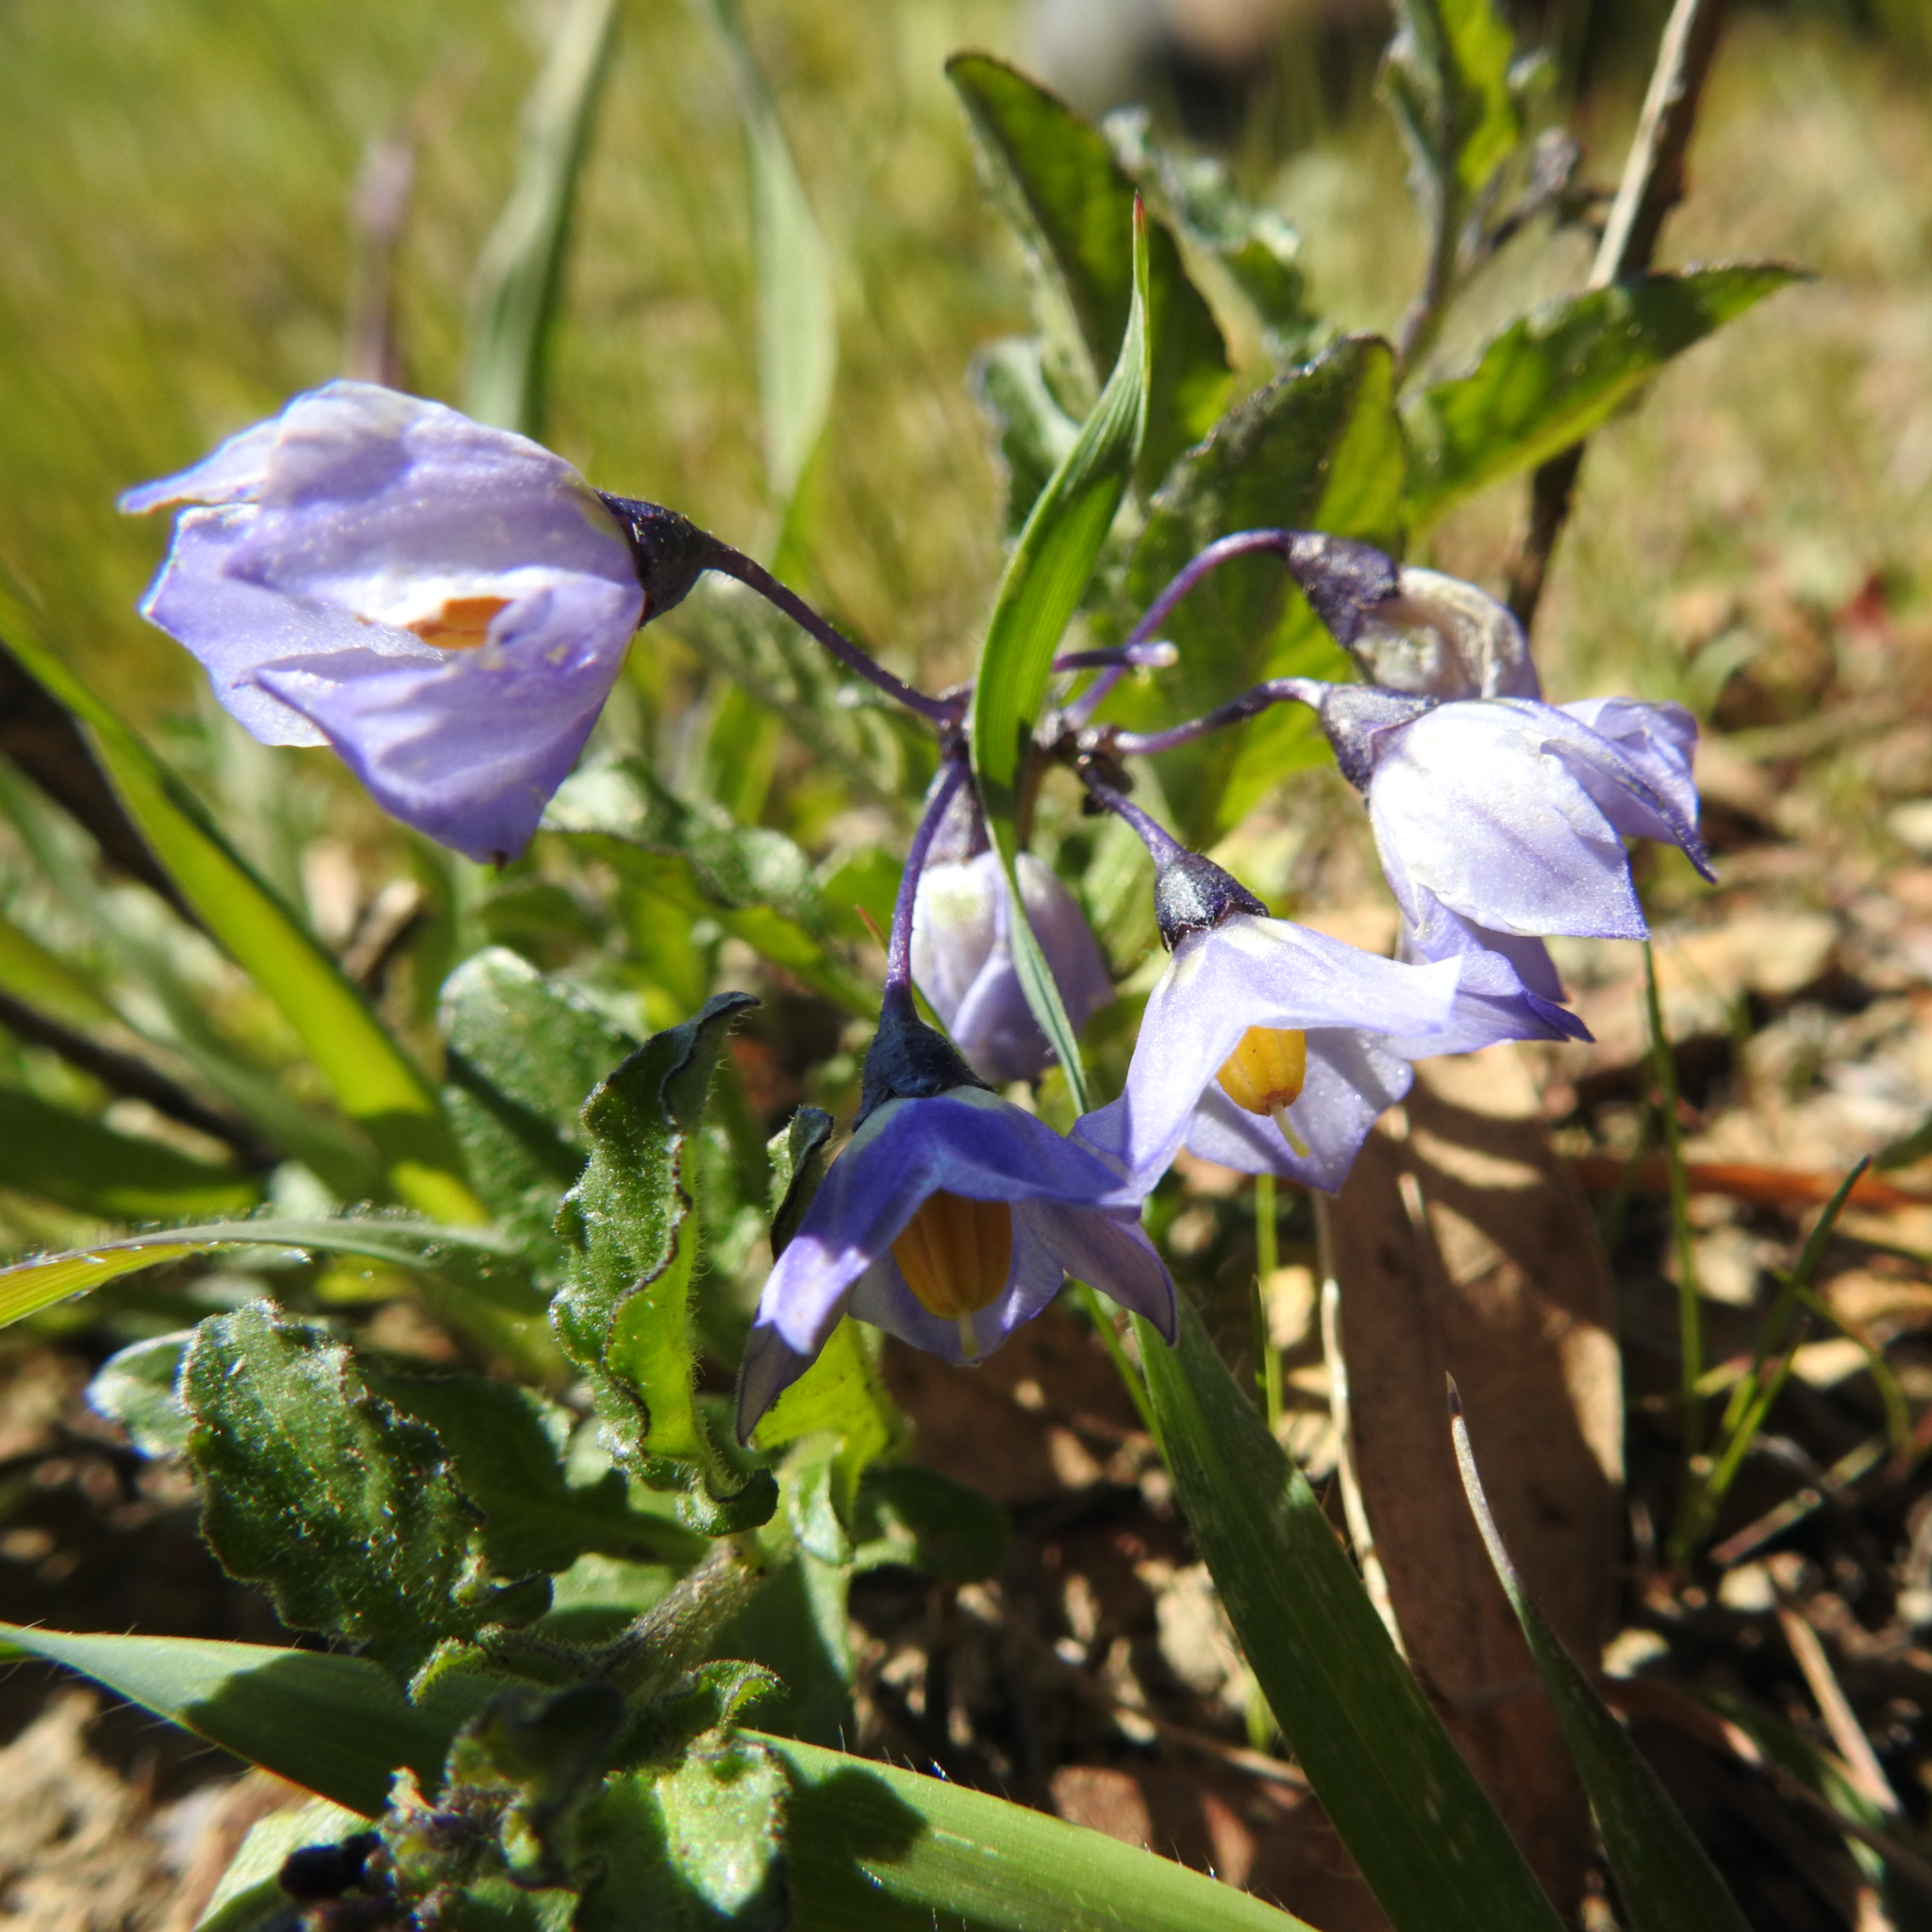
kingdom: Plantae
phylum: Tracheophyta
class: Magnoliopsida
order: Solanales
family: Solanaceae
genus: Solanum
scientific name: Solanum umbelliferum
